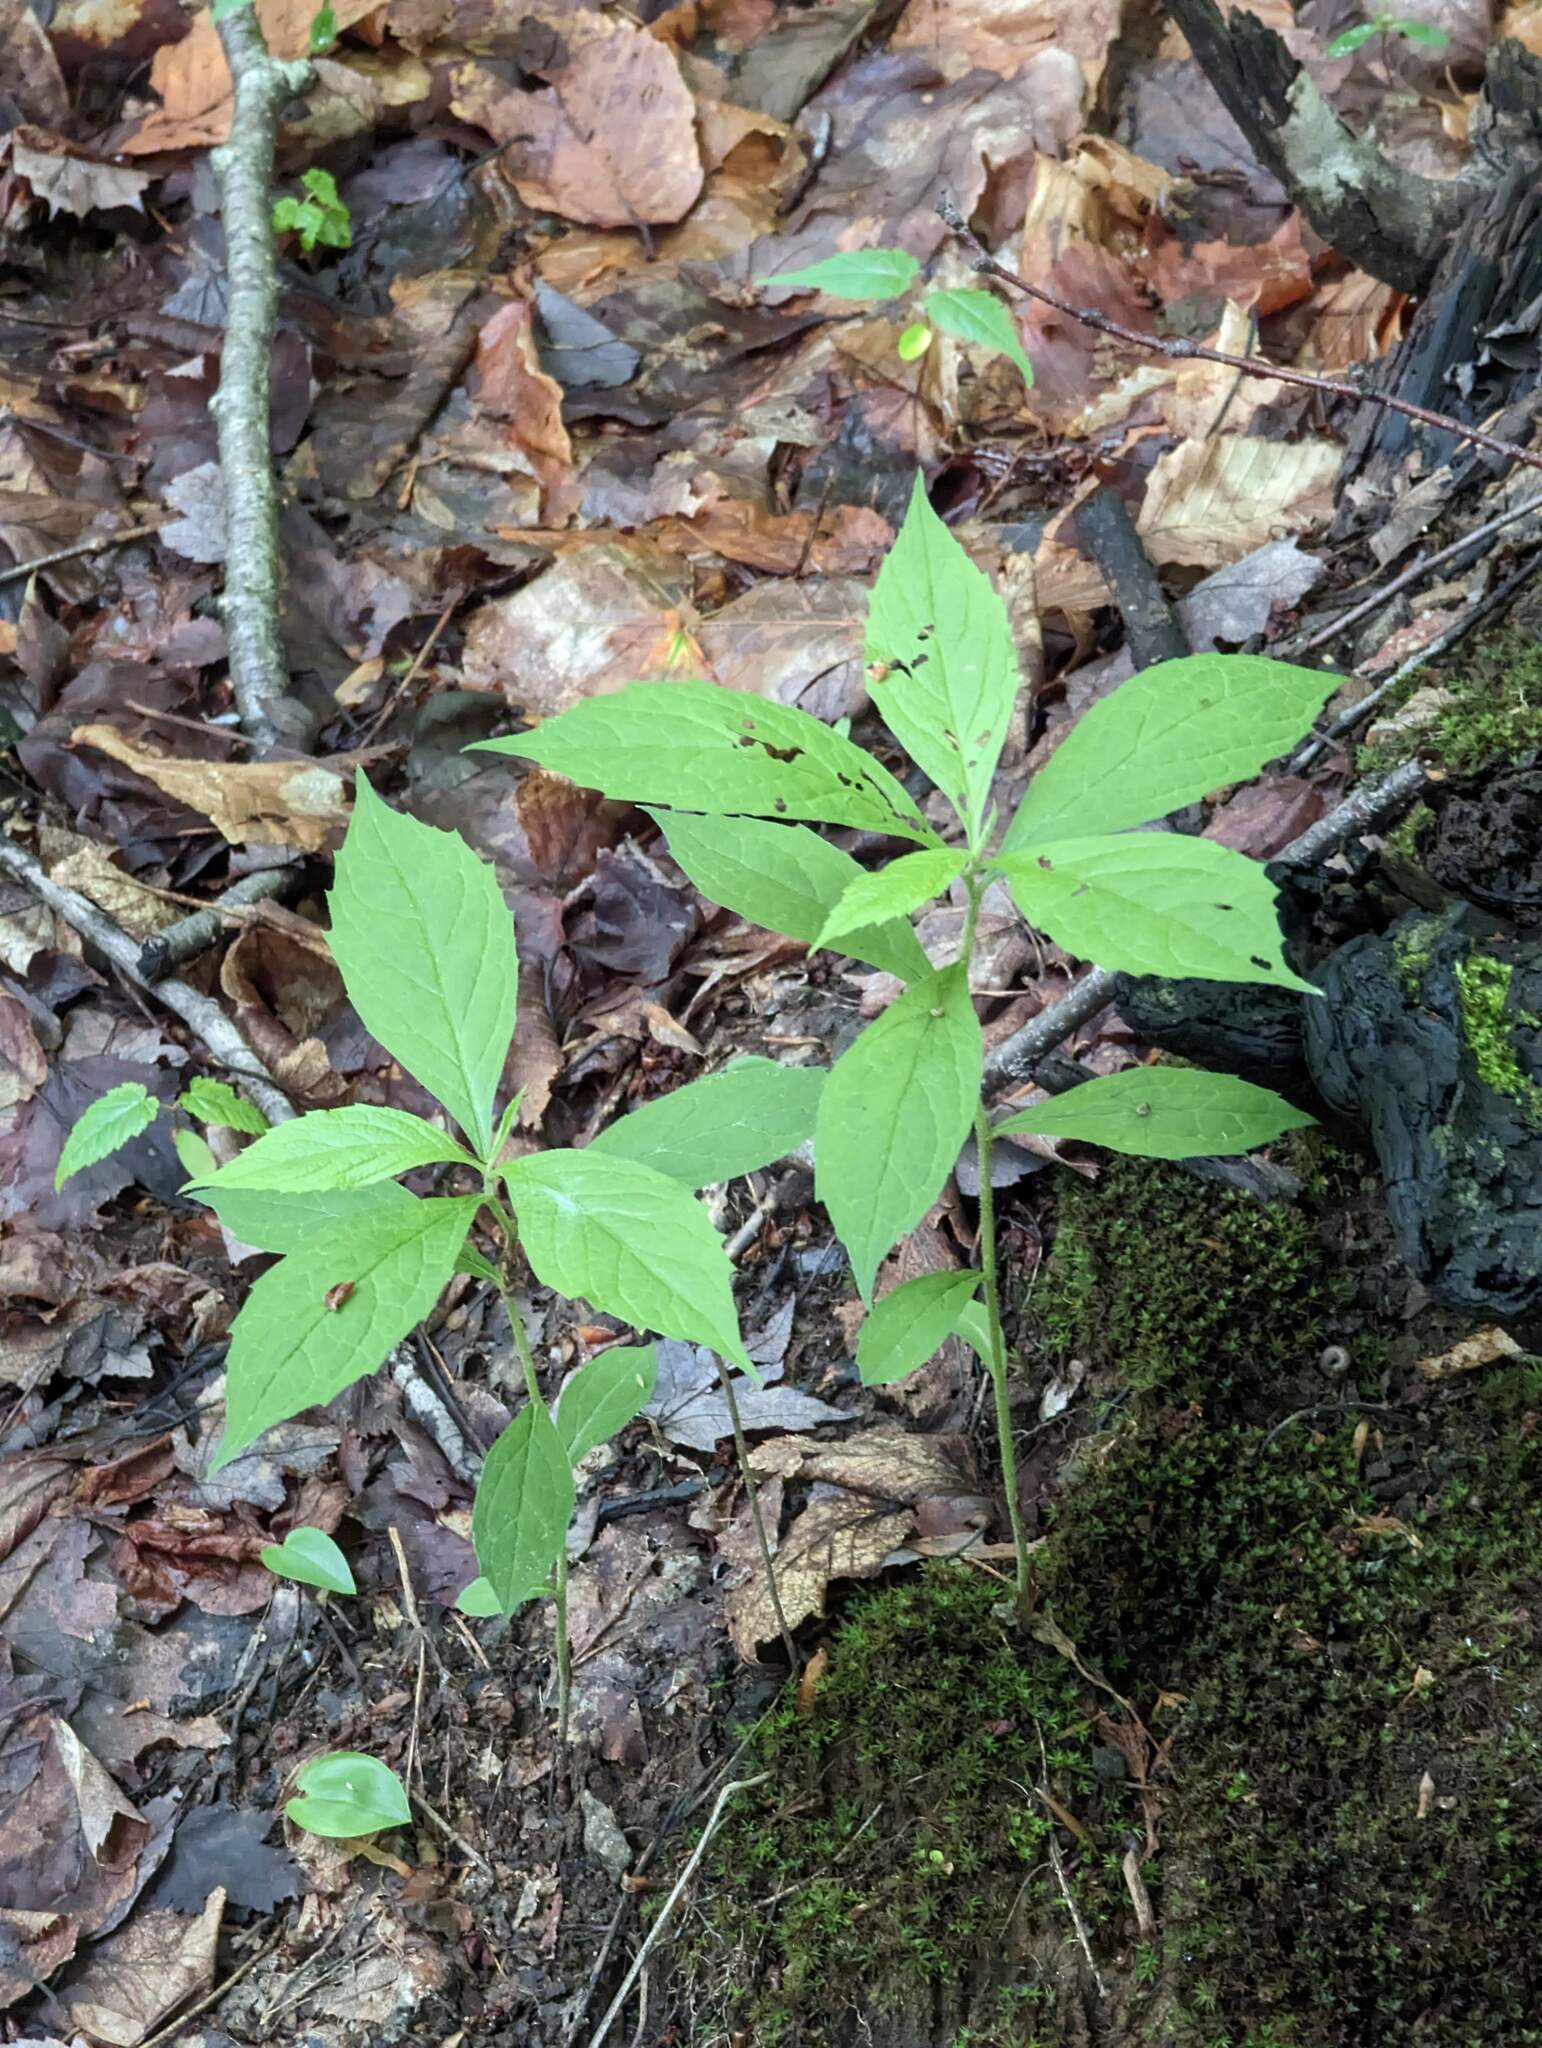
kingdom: Plantae
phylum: Tracheophyta
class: Magnoliopsida
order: Asterales
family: Asteraceae
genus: Oclemena
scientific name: Oclemena acuminata
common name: Mountain aster
